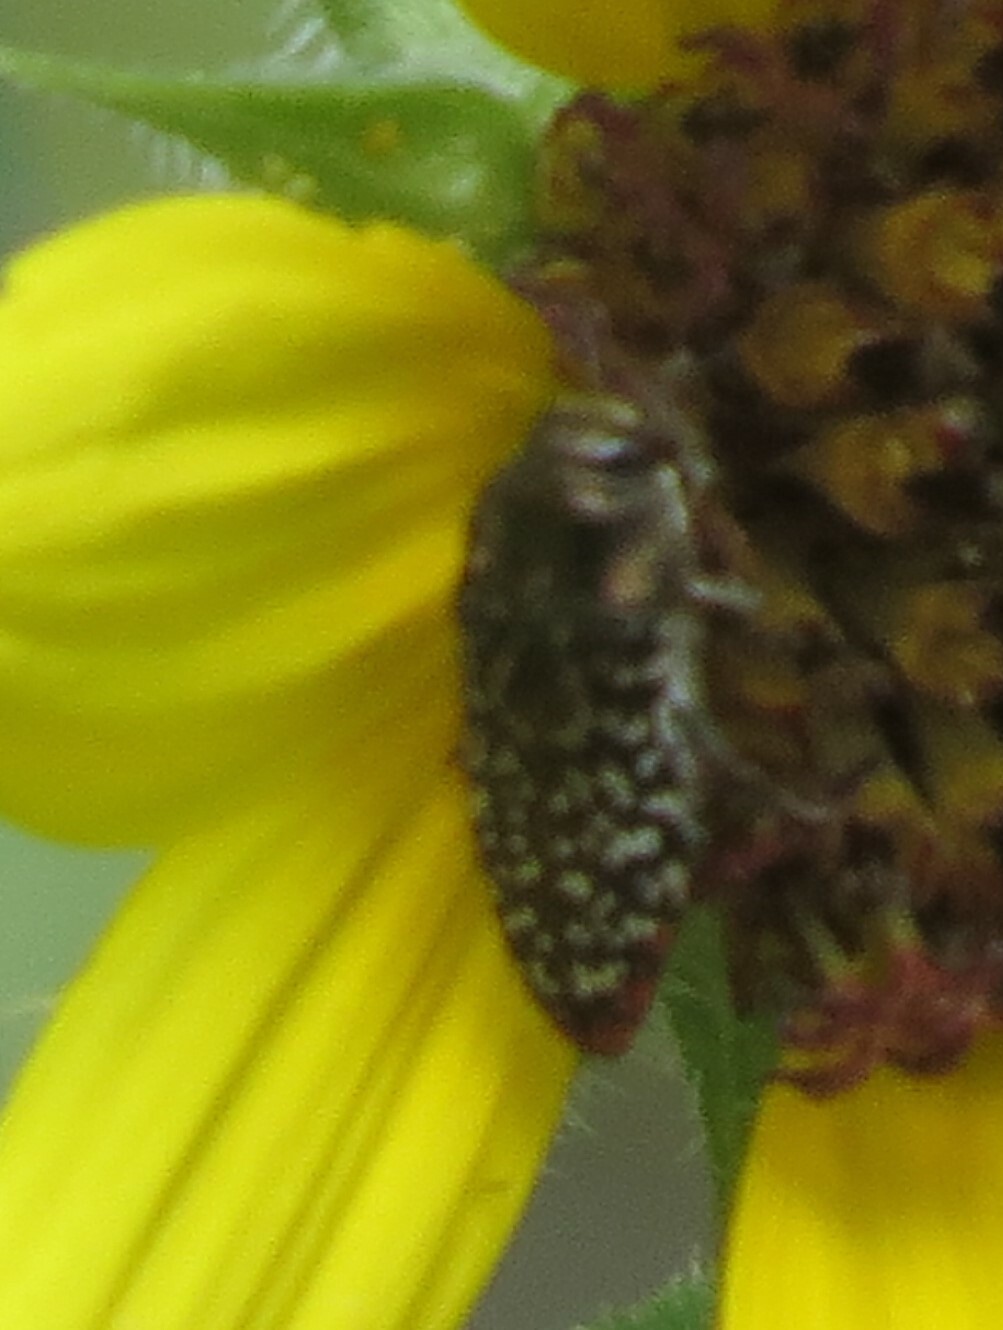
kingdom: Animalia
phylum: Arthropoda
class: Insecta
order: Coleoptera
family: Buprestidae
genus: Acmaeodera
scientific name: Acmaeodera haemorrhoa
